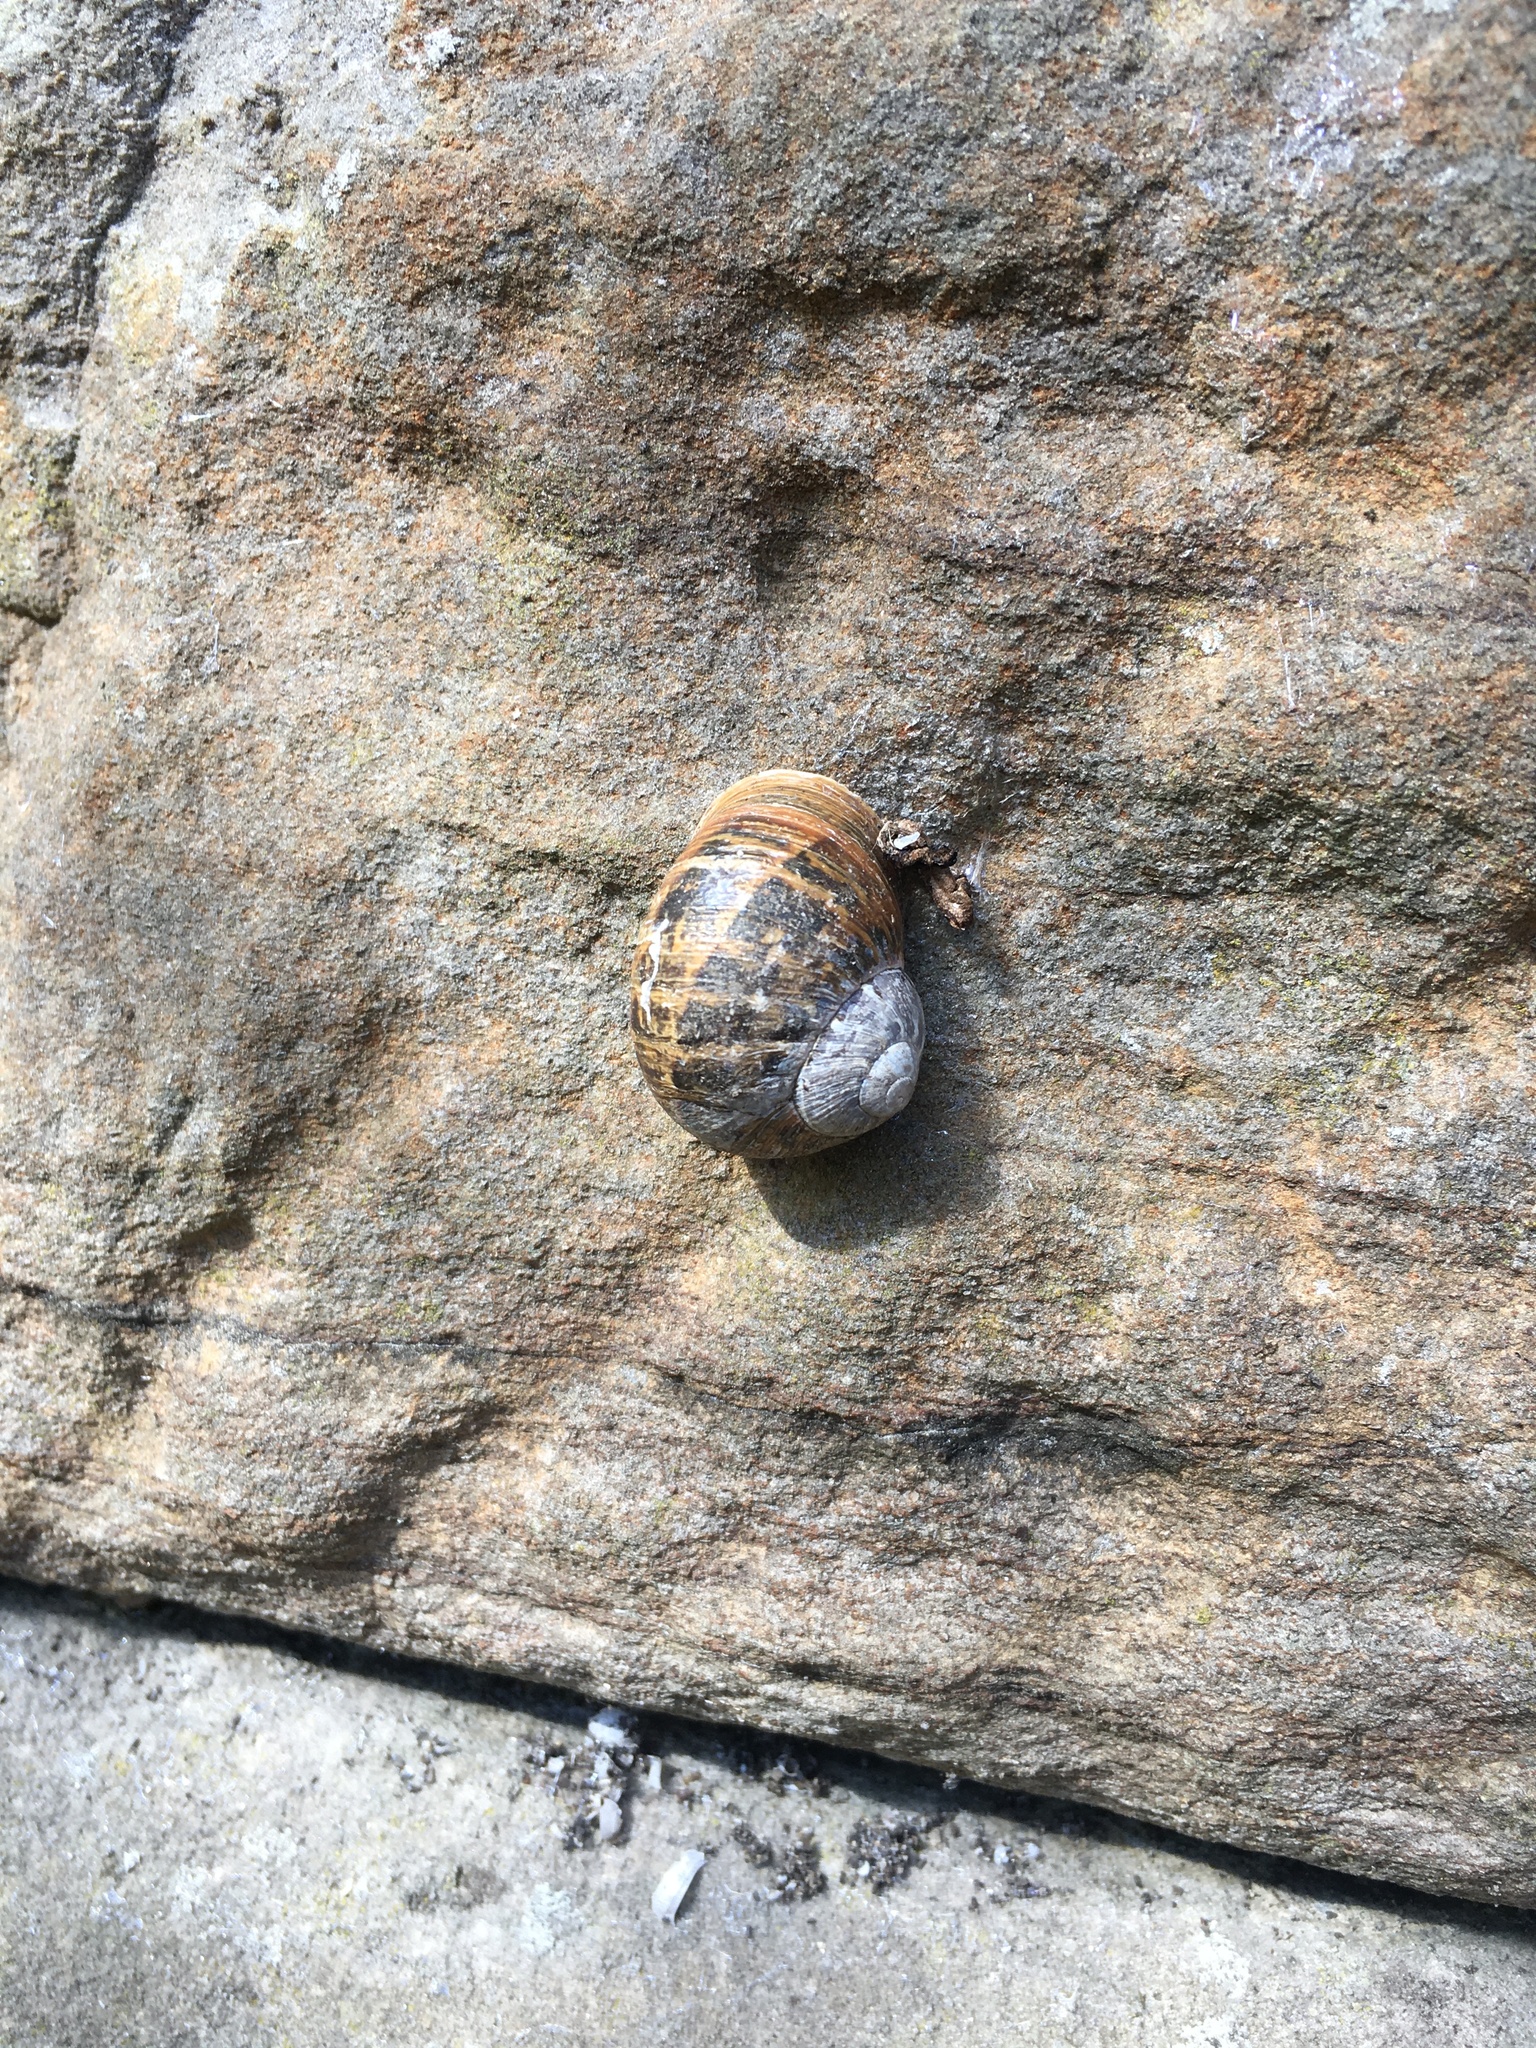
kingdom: Animalia
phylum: Mollusca
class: Gastropoda
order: Stylommatophora
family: Helicidae
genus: Cornu
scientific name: Cornu aspersum
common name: Brown garden snail
